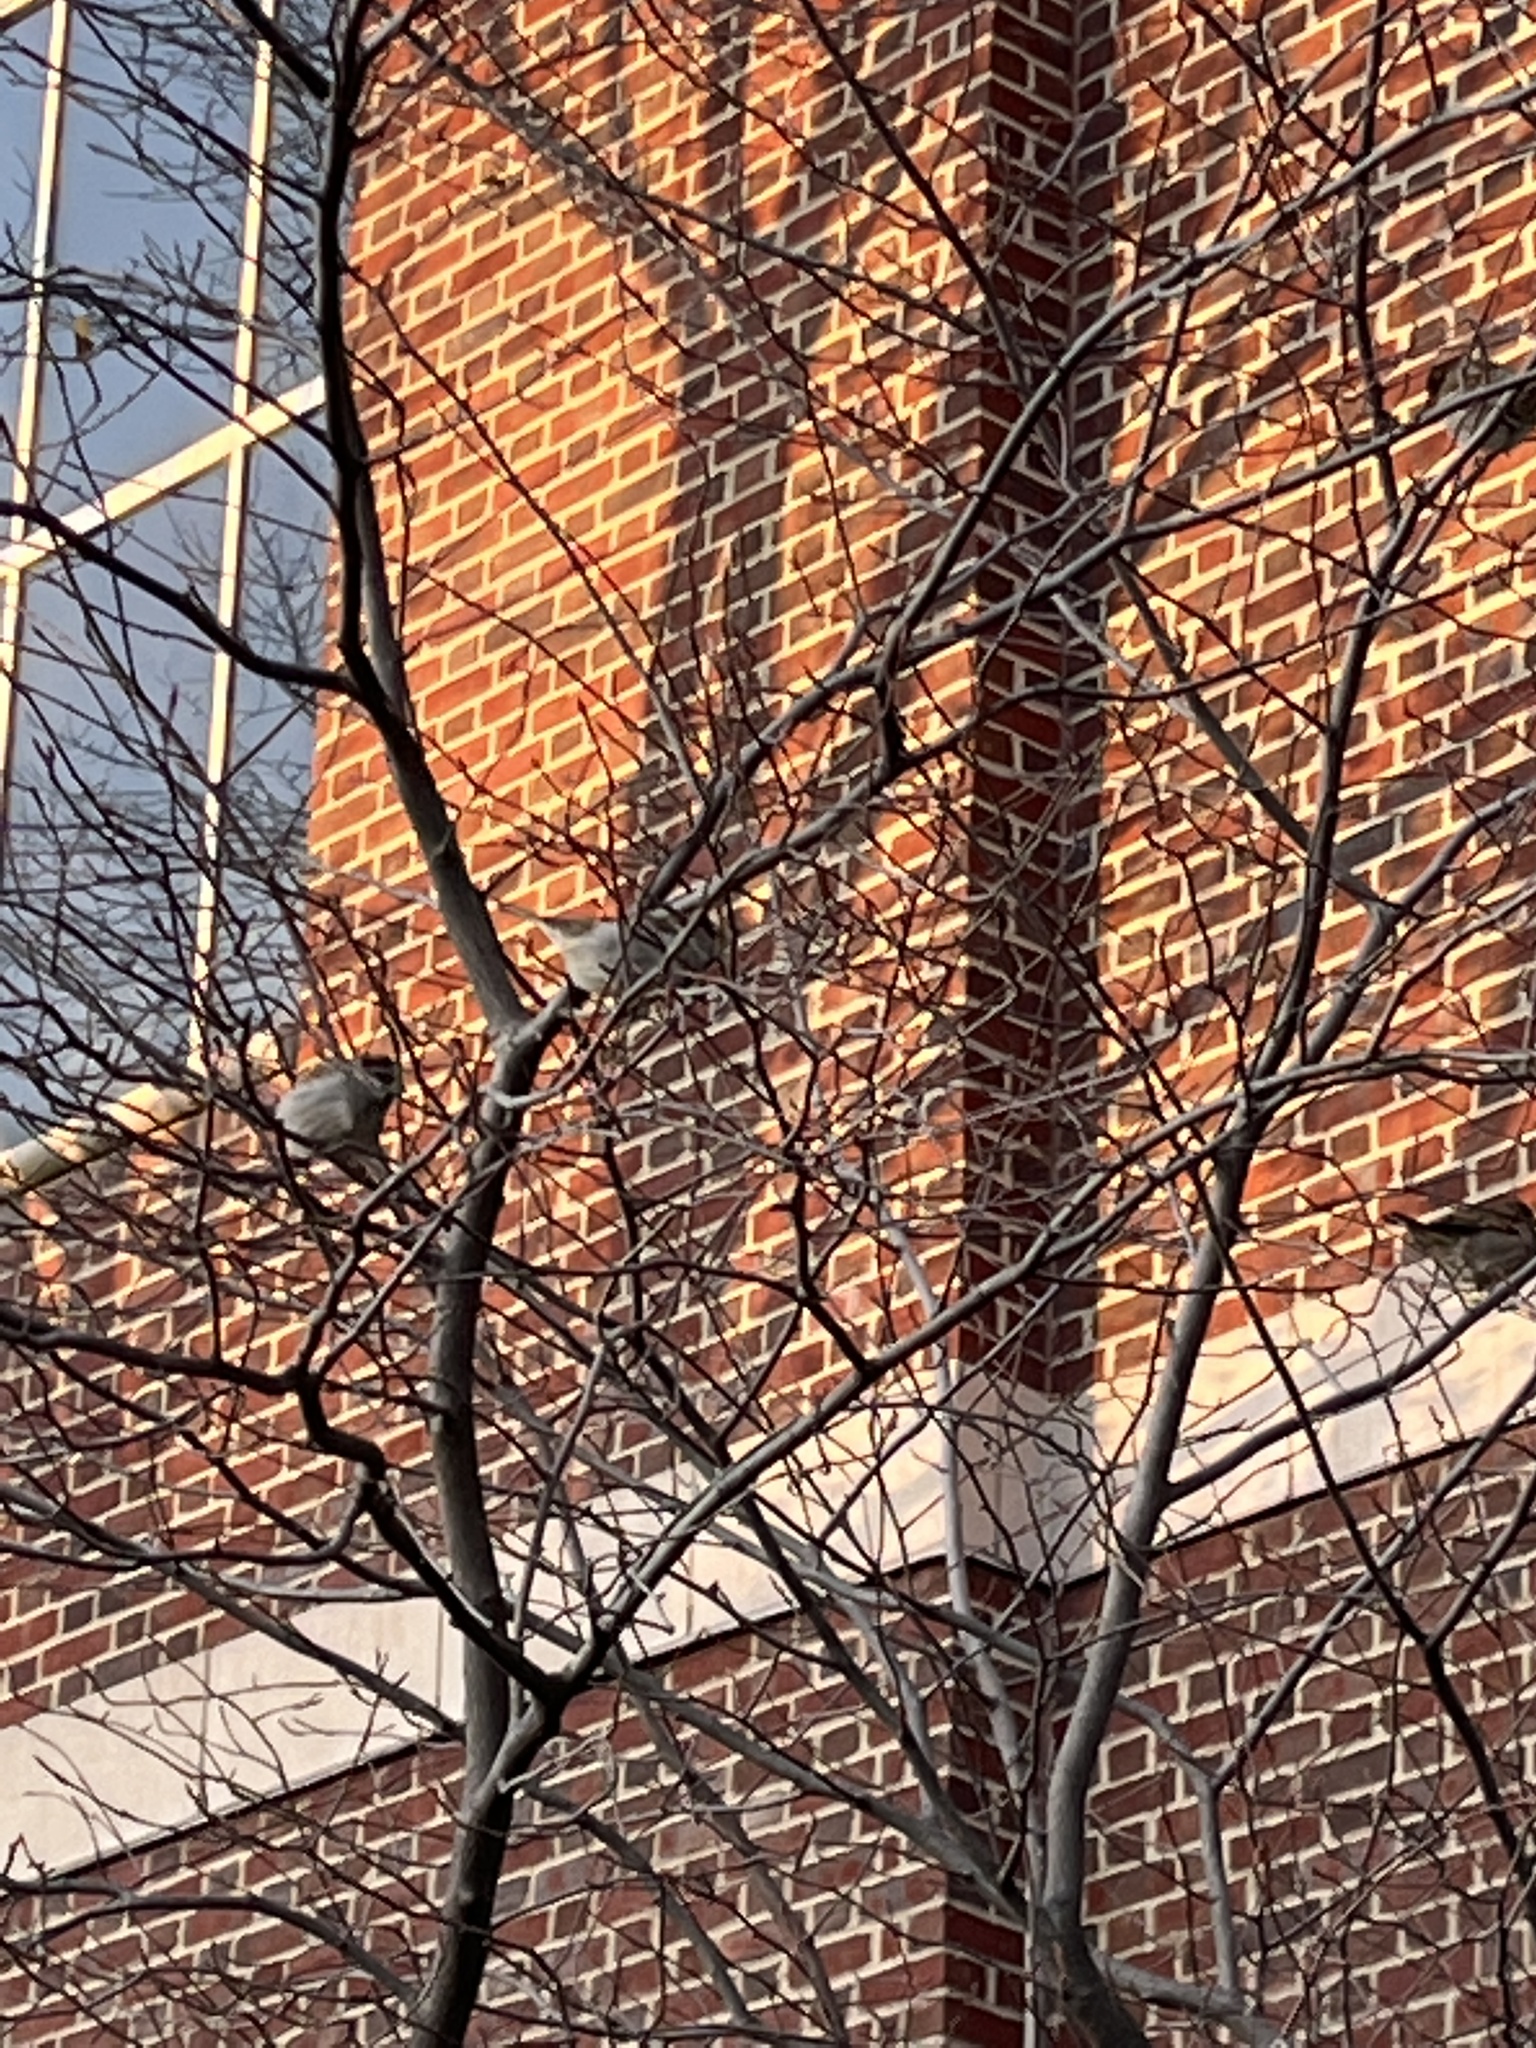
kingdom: Animalia
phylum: Chordata
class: Aves
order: Passeriformes
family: Passeridae
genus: Passer
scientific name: Passer domesticus
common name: House sparrow
